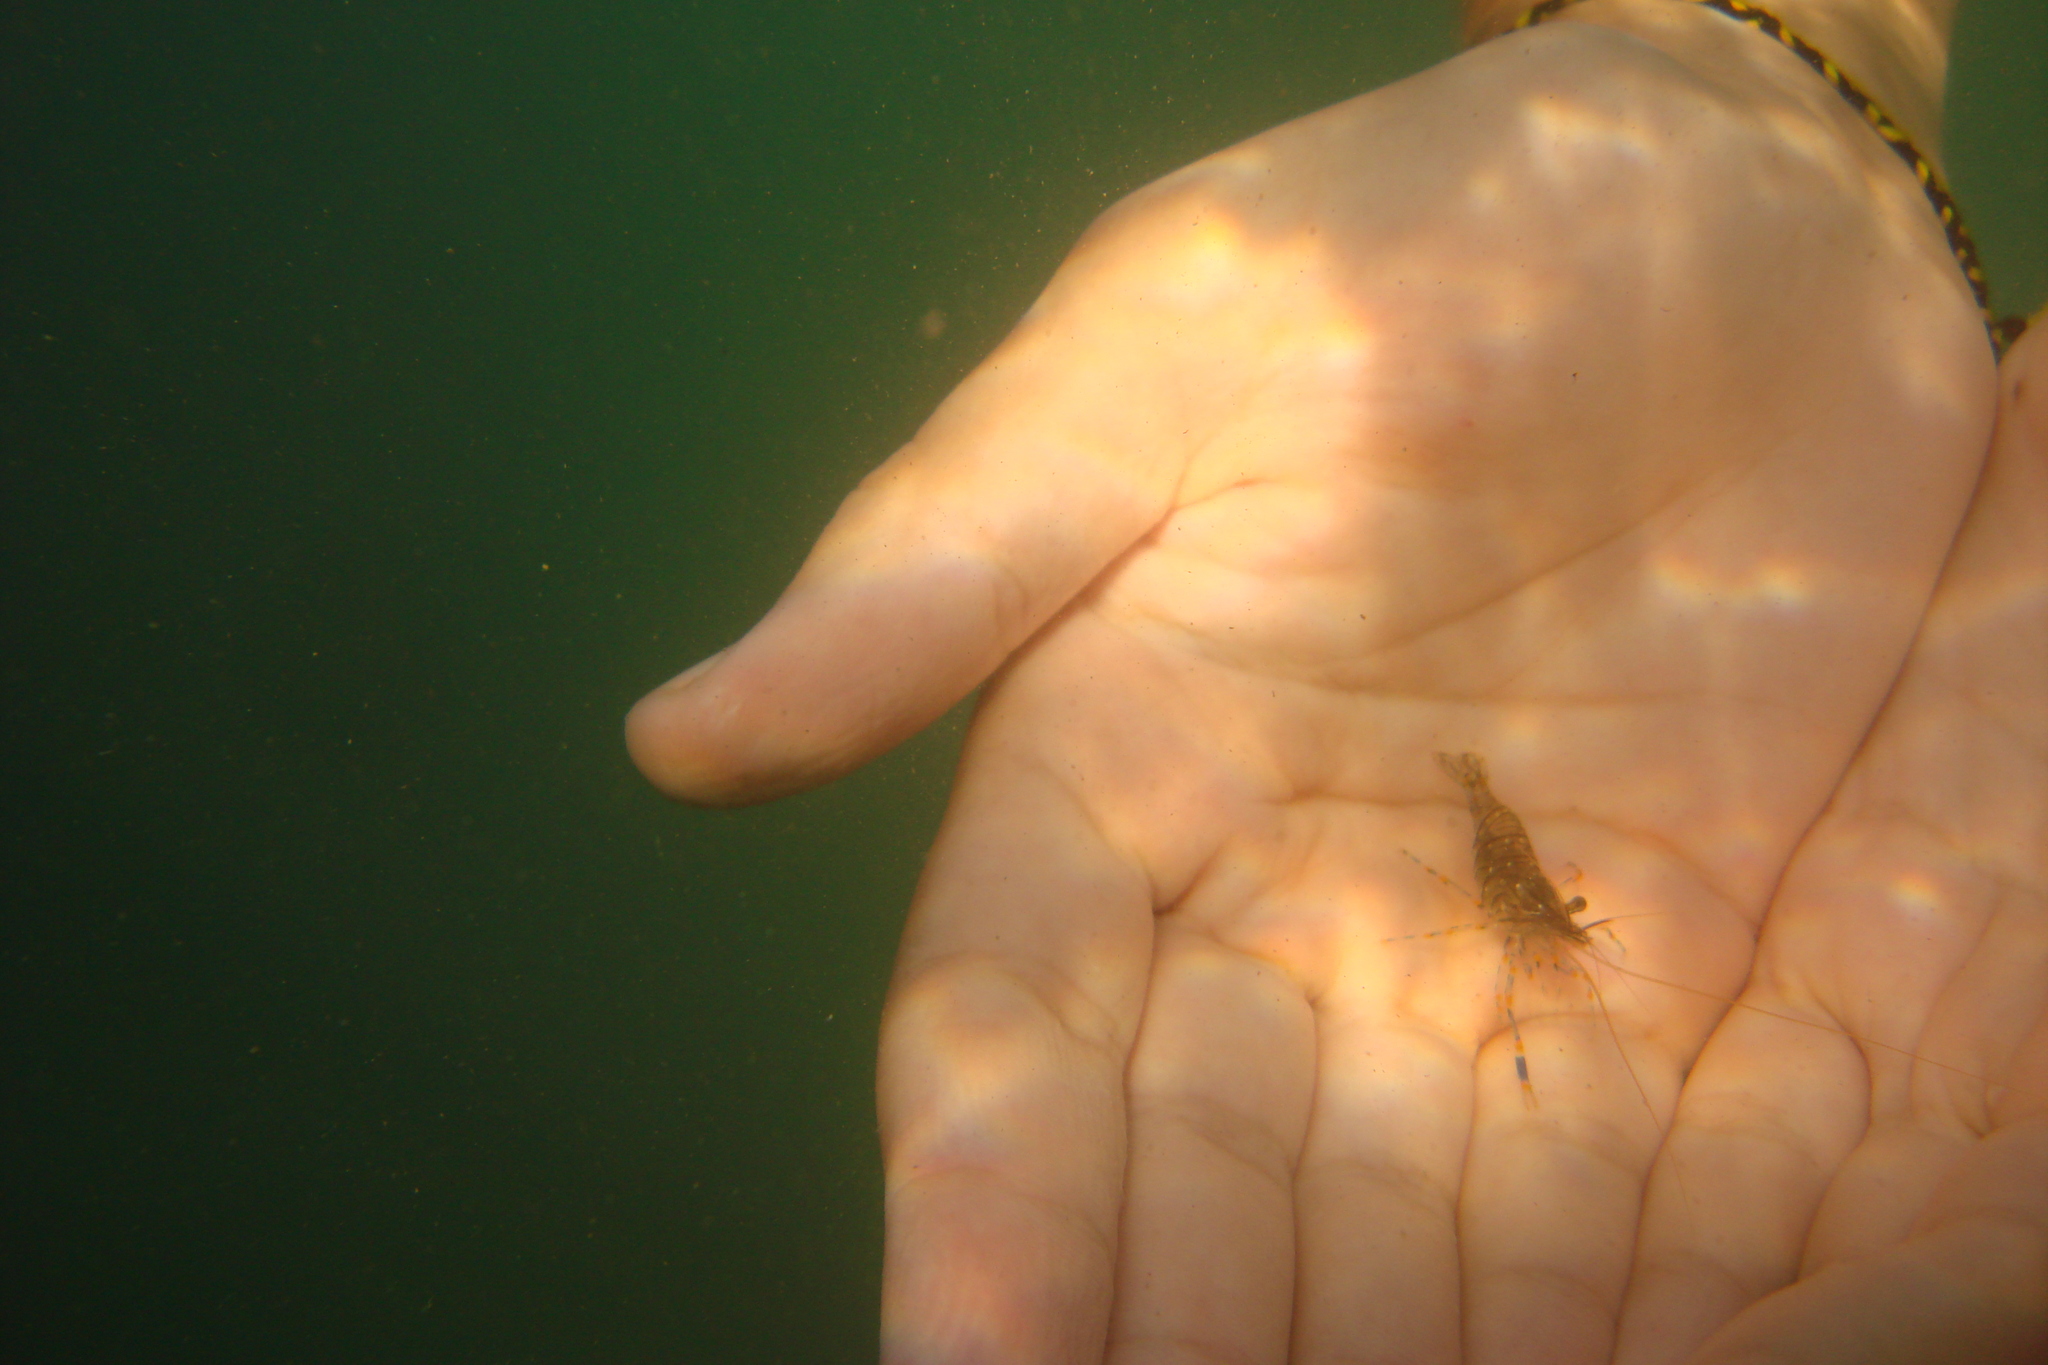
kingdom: Animalia
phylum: Arthropoda
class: Malacostraca
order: Decapoda
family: Palaemonidae
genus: Palaemon
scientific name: Palaemon elegans
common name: Grass prawm
